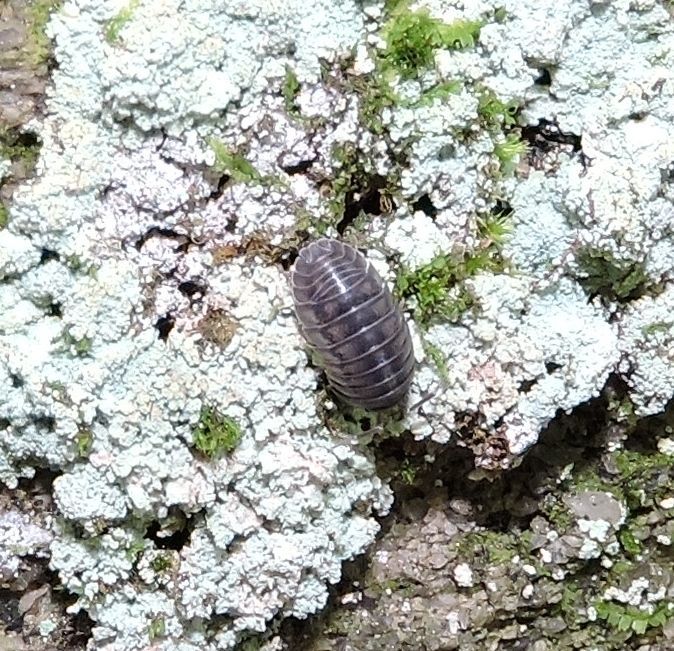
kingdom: Animalia
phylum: Arthropoda
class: Malacostraca
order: Isopoda
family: Armadillidiidae
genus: Armadillidium
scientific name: Armadillidium nasatum
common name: Isopod
